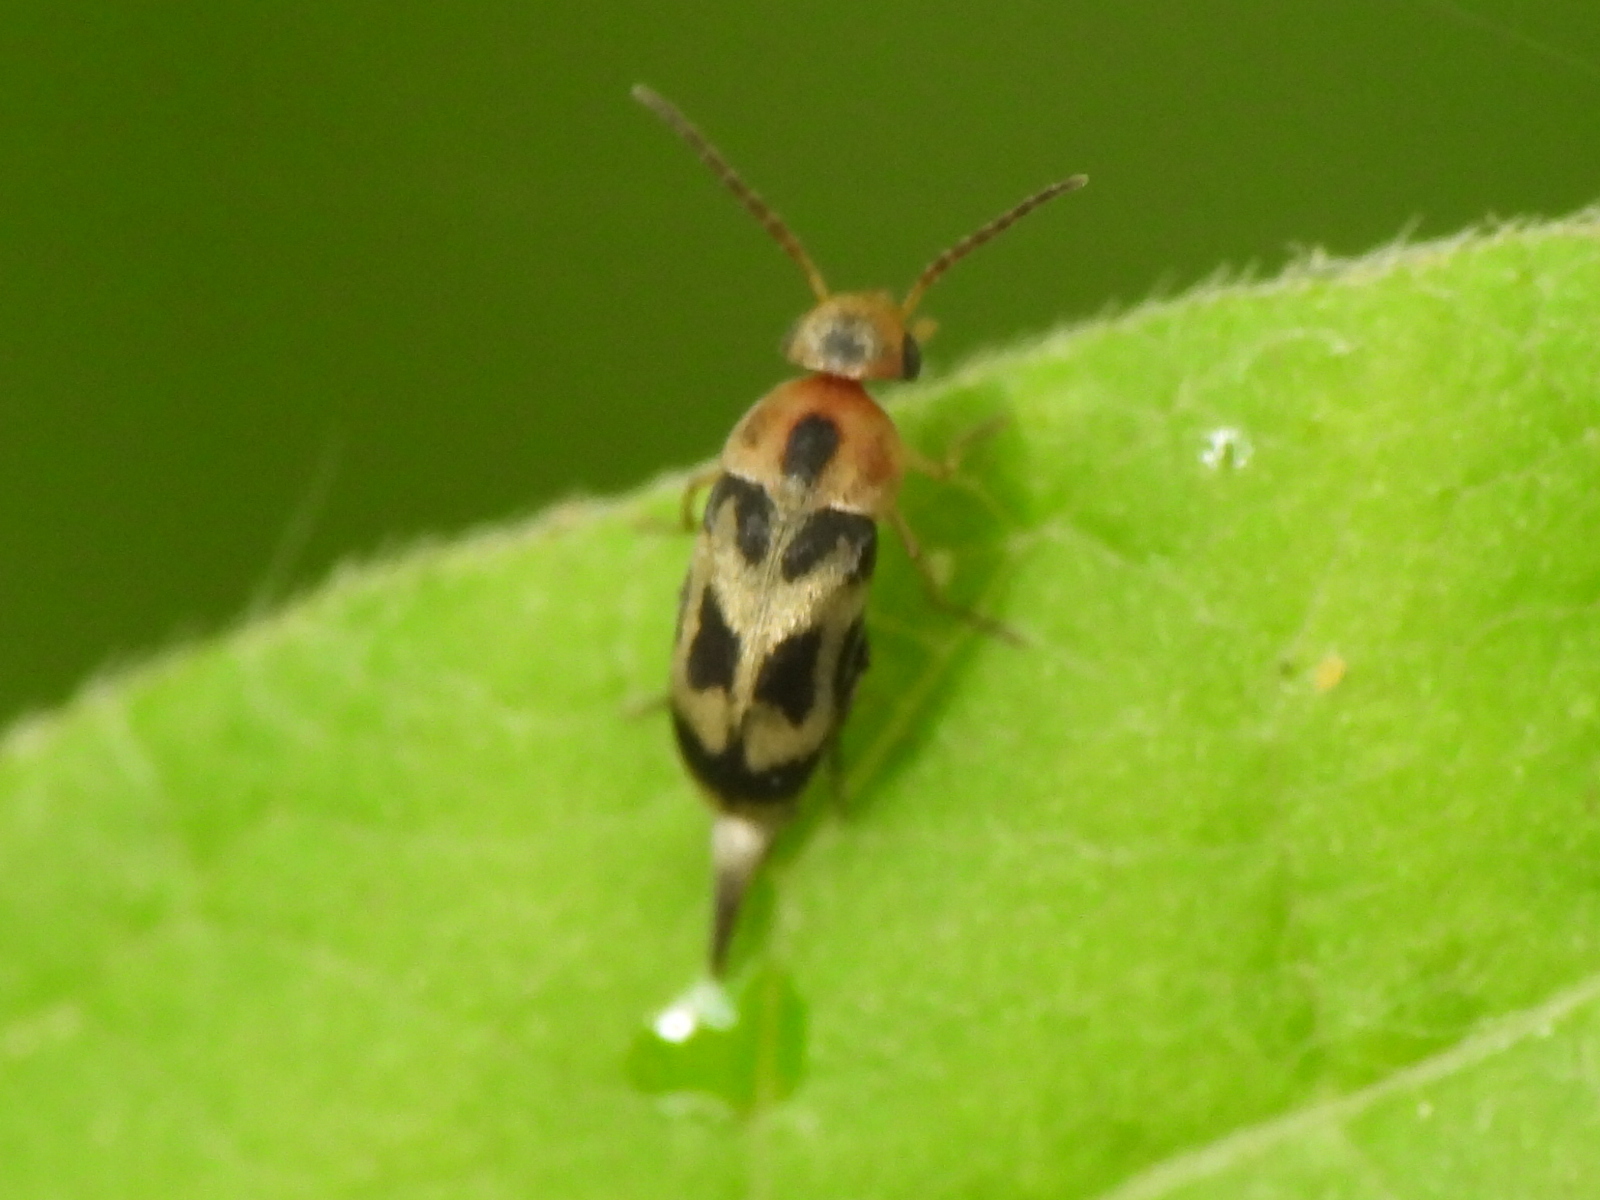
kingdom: Animalia
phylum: Arthropoda
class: Insecta
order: Coleoptera
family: Mordellidae
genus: Falsomordellistena
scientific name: Falsomordellistena hebraica
